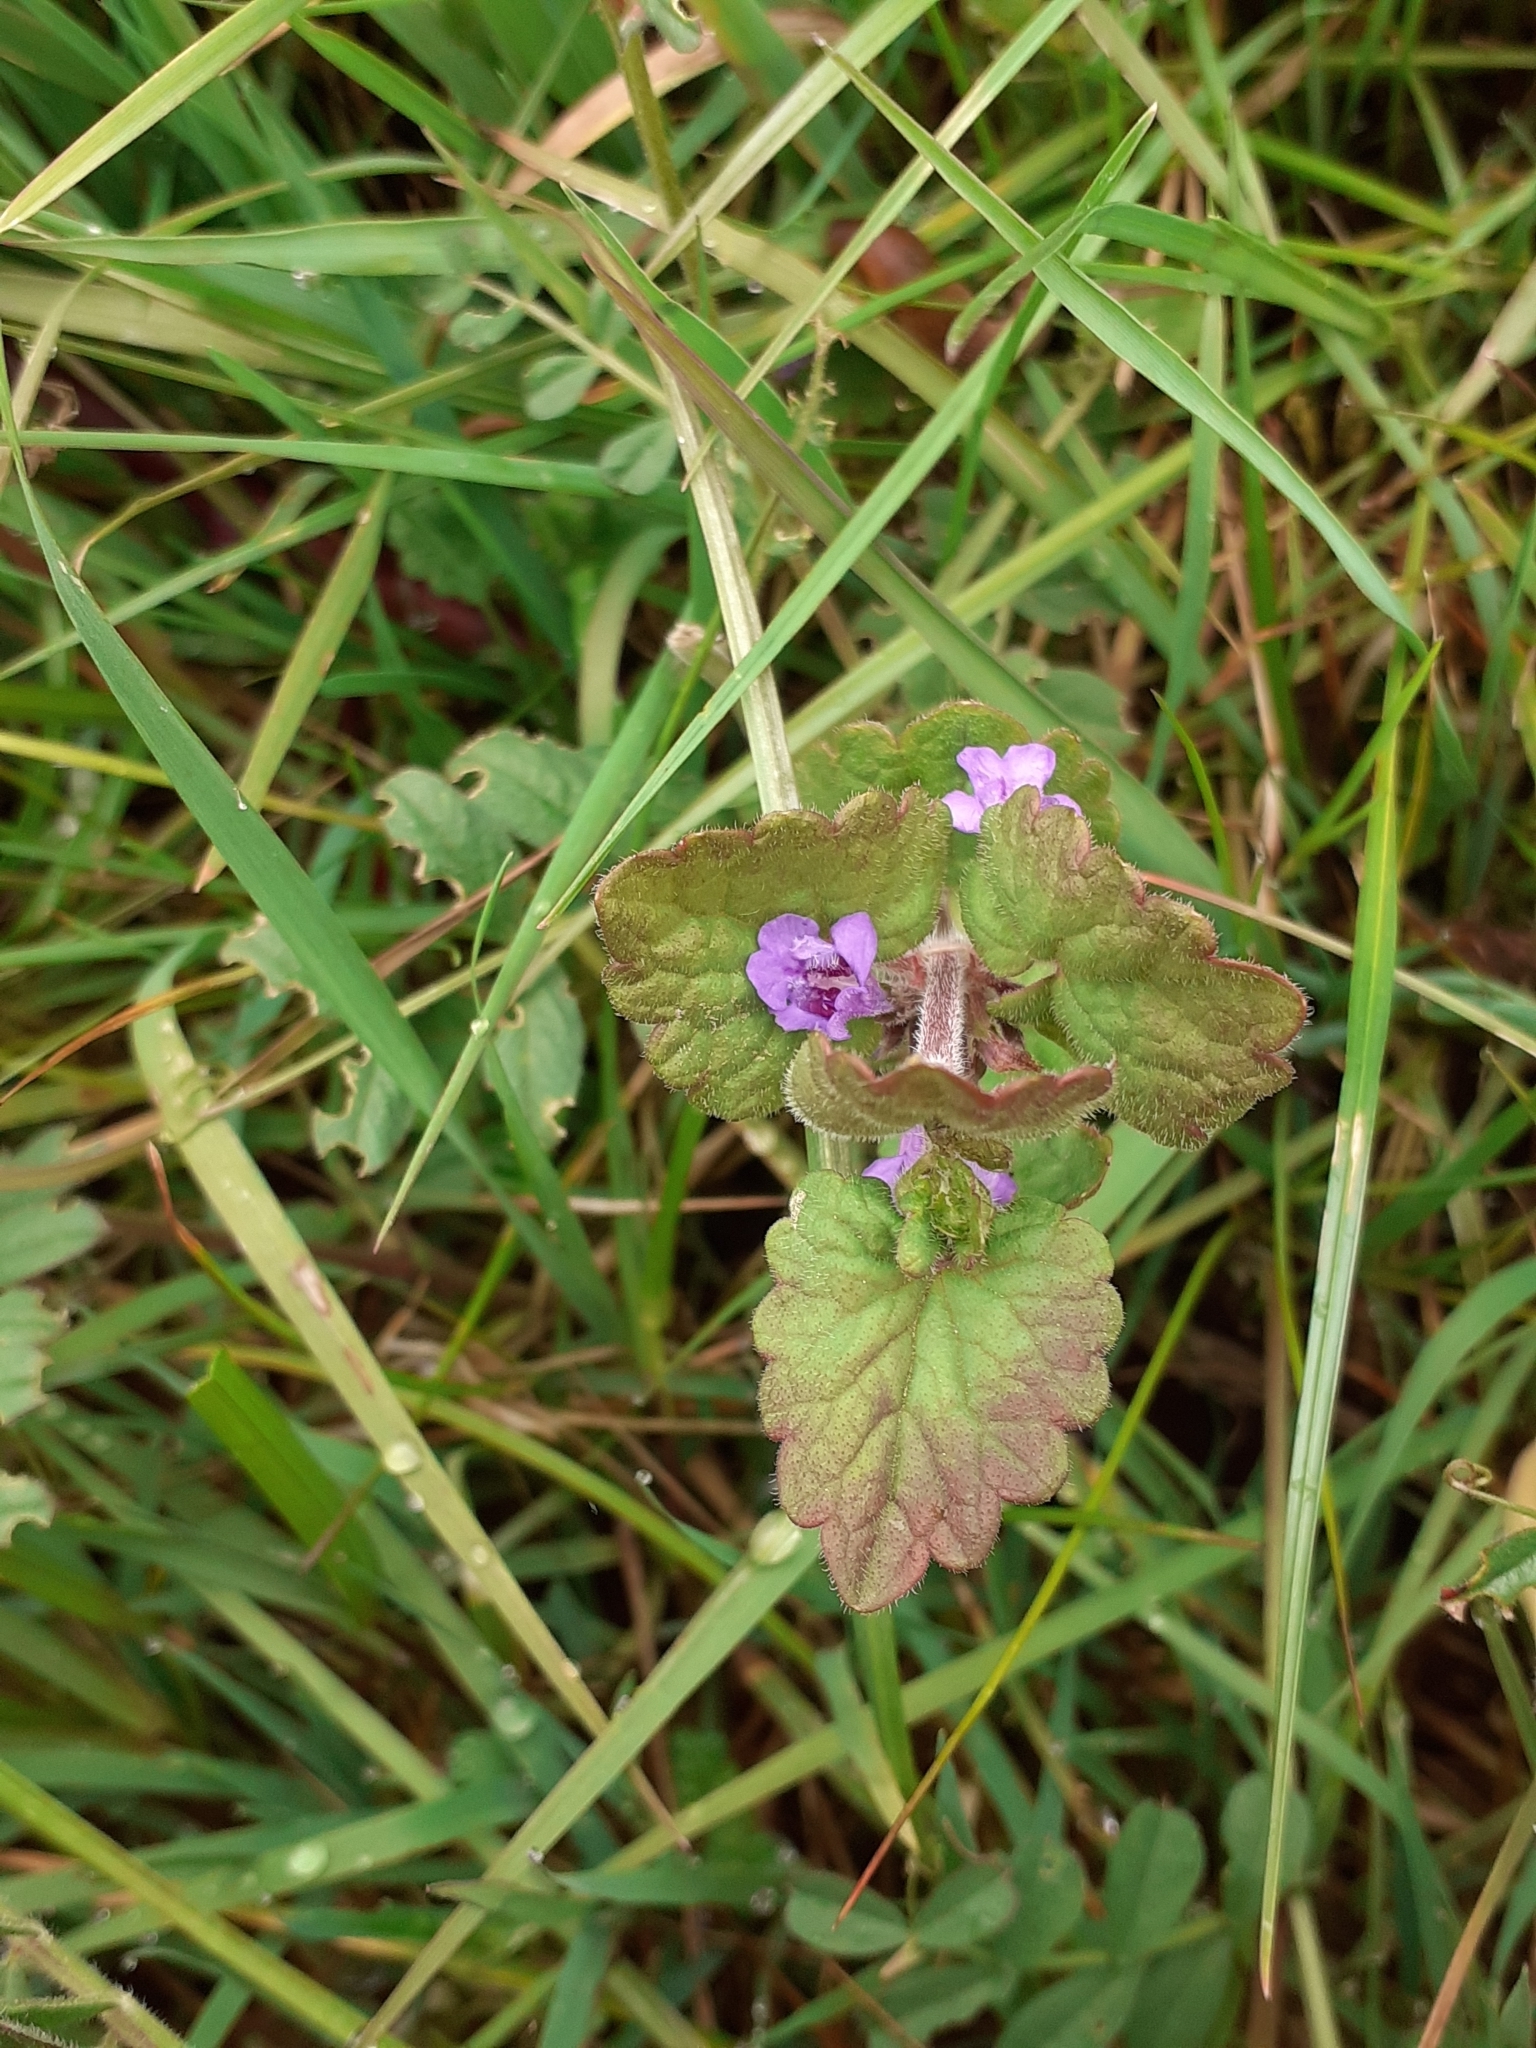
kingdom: Plantae
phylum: Tracheophyta
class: Magnoliopsida
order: Lamiales
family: Lamiaceae
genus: Glechoma
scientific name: Glechoma hederacea
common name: Ground ivy
